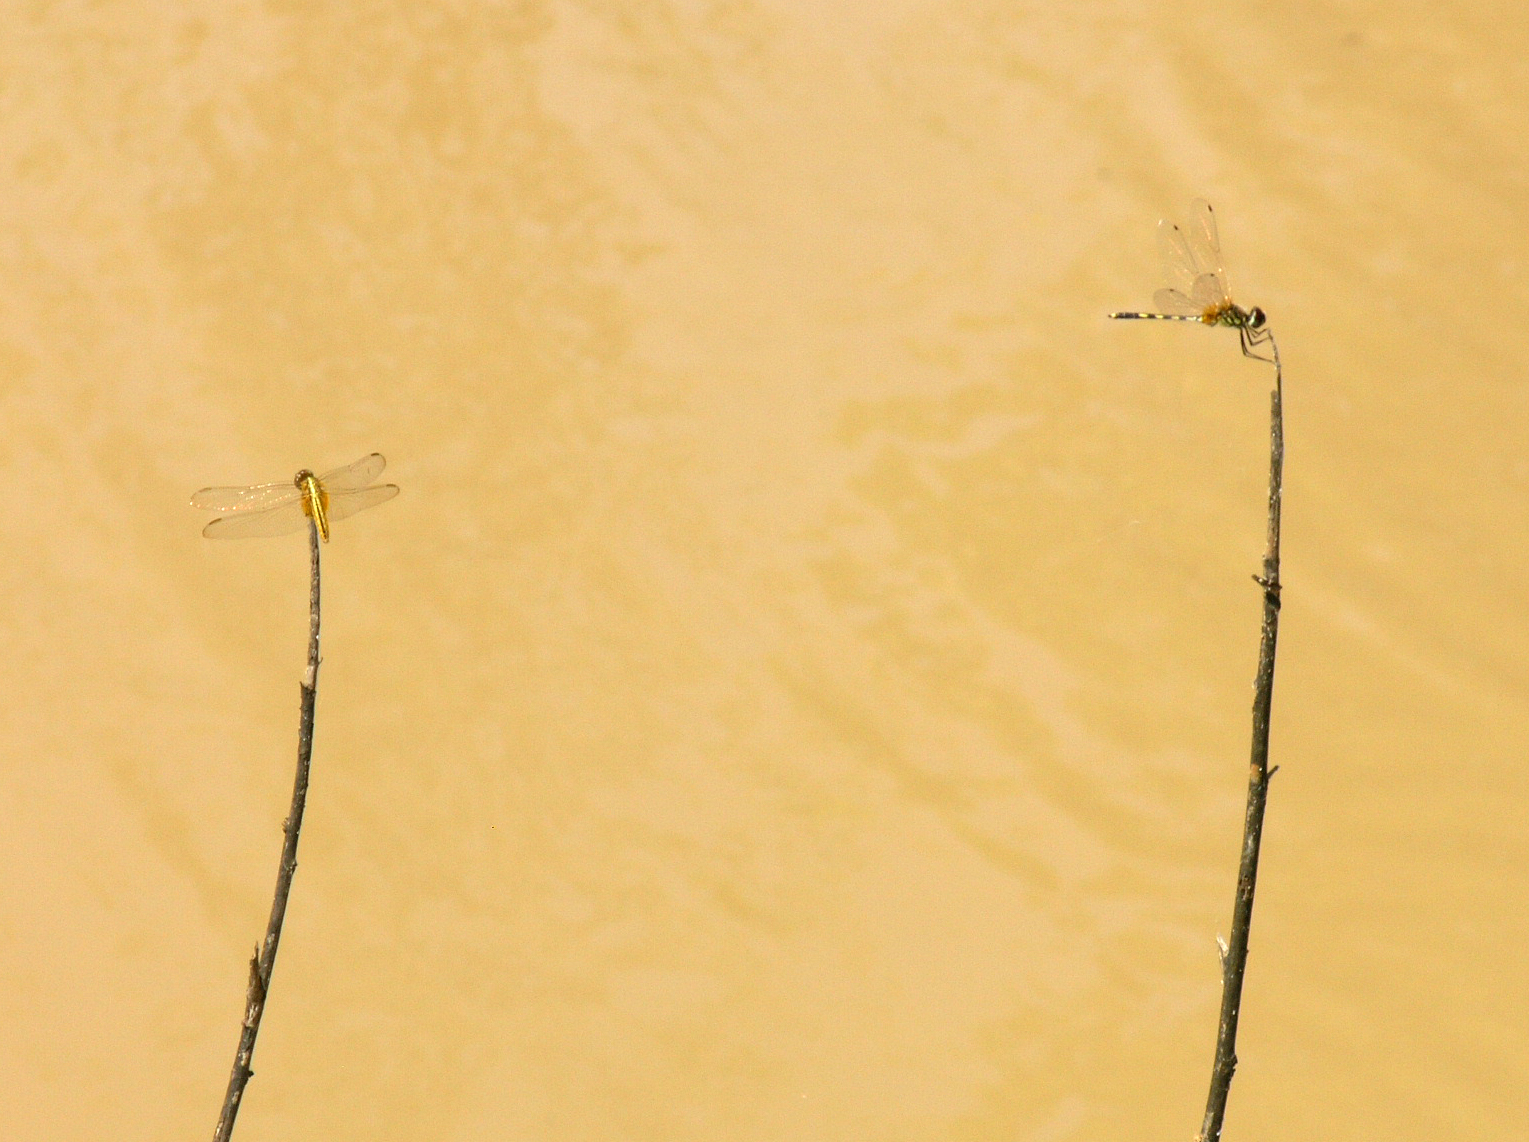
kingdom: Animalia
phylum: Arthropoda
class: Insecta
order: Odonata
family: Libellulidae
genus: Trithemis
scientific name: Trithemis pallidinervis
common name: Dancing dropwing
